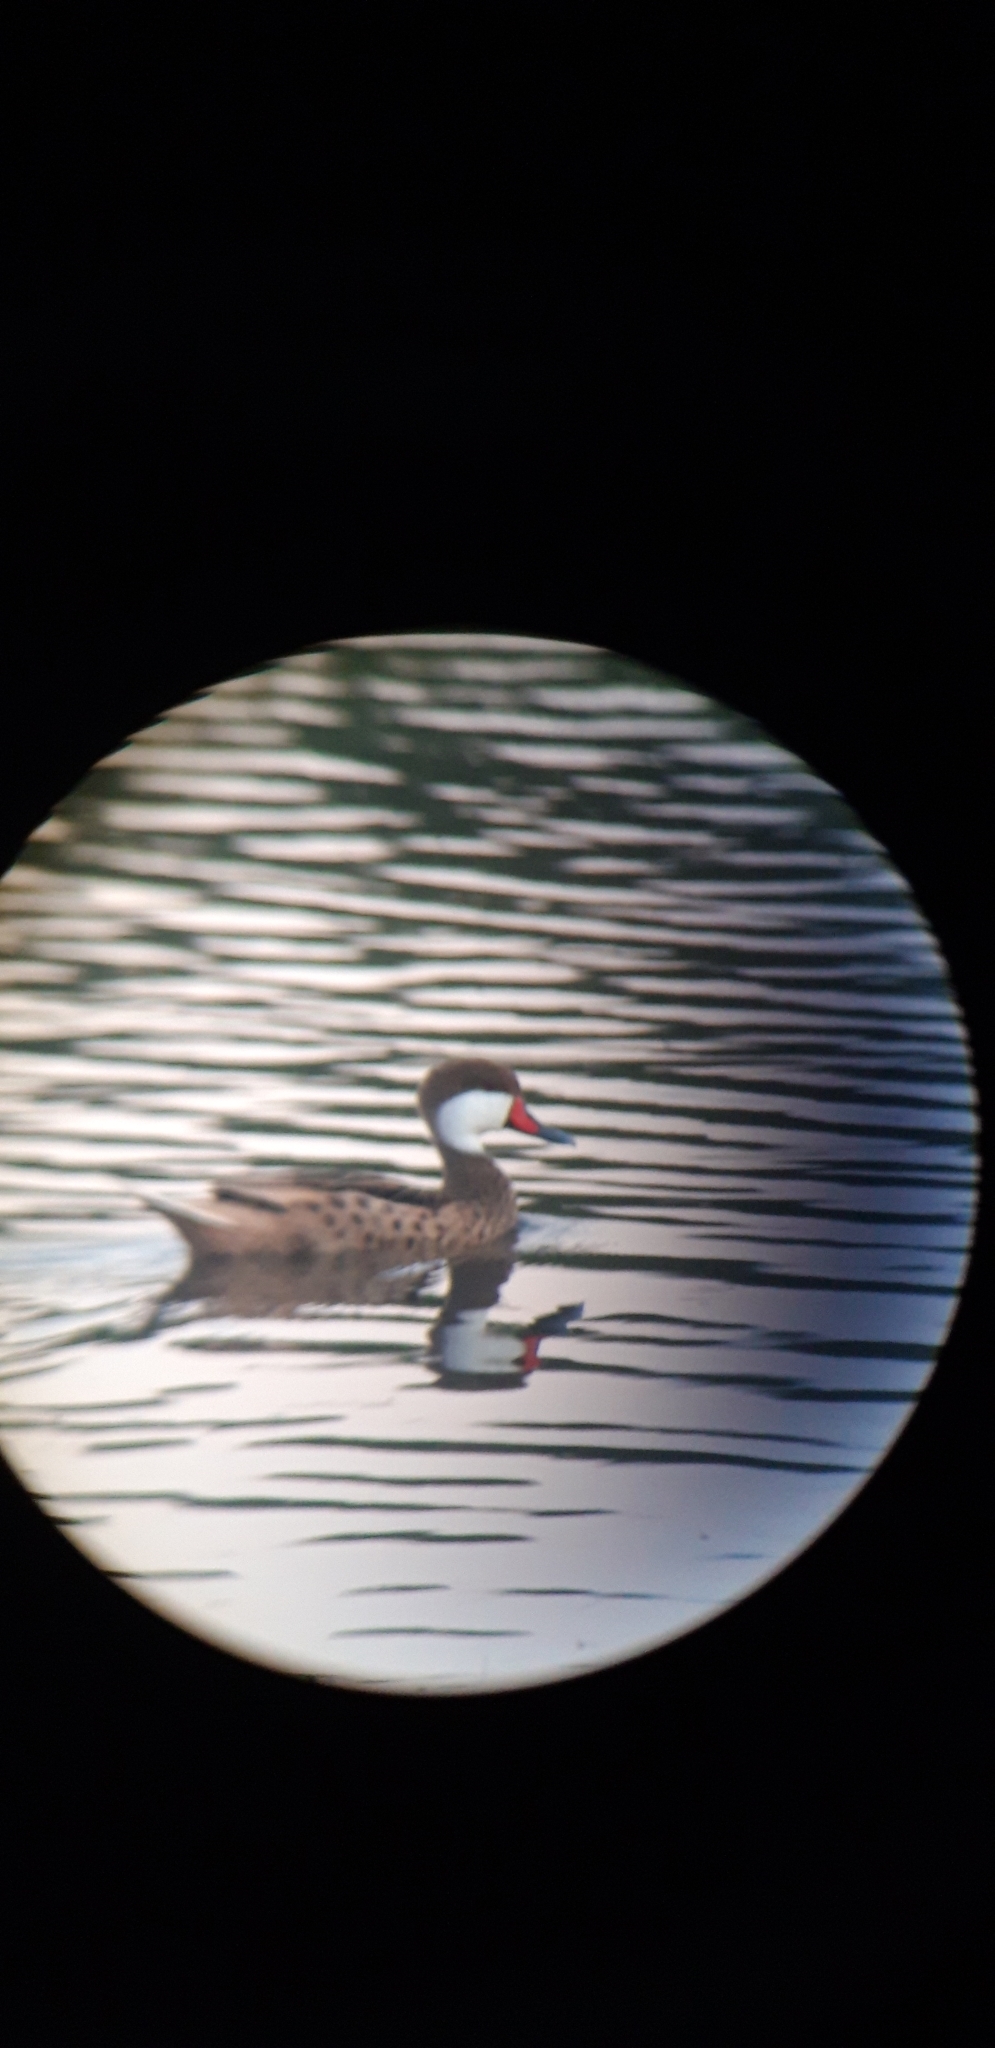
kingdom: Animalia
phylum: Chordata
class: Aves
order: Anseriformes
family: Anatidae
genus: Anas
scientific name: Anas bahamensis
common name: White-cheeked pintail
